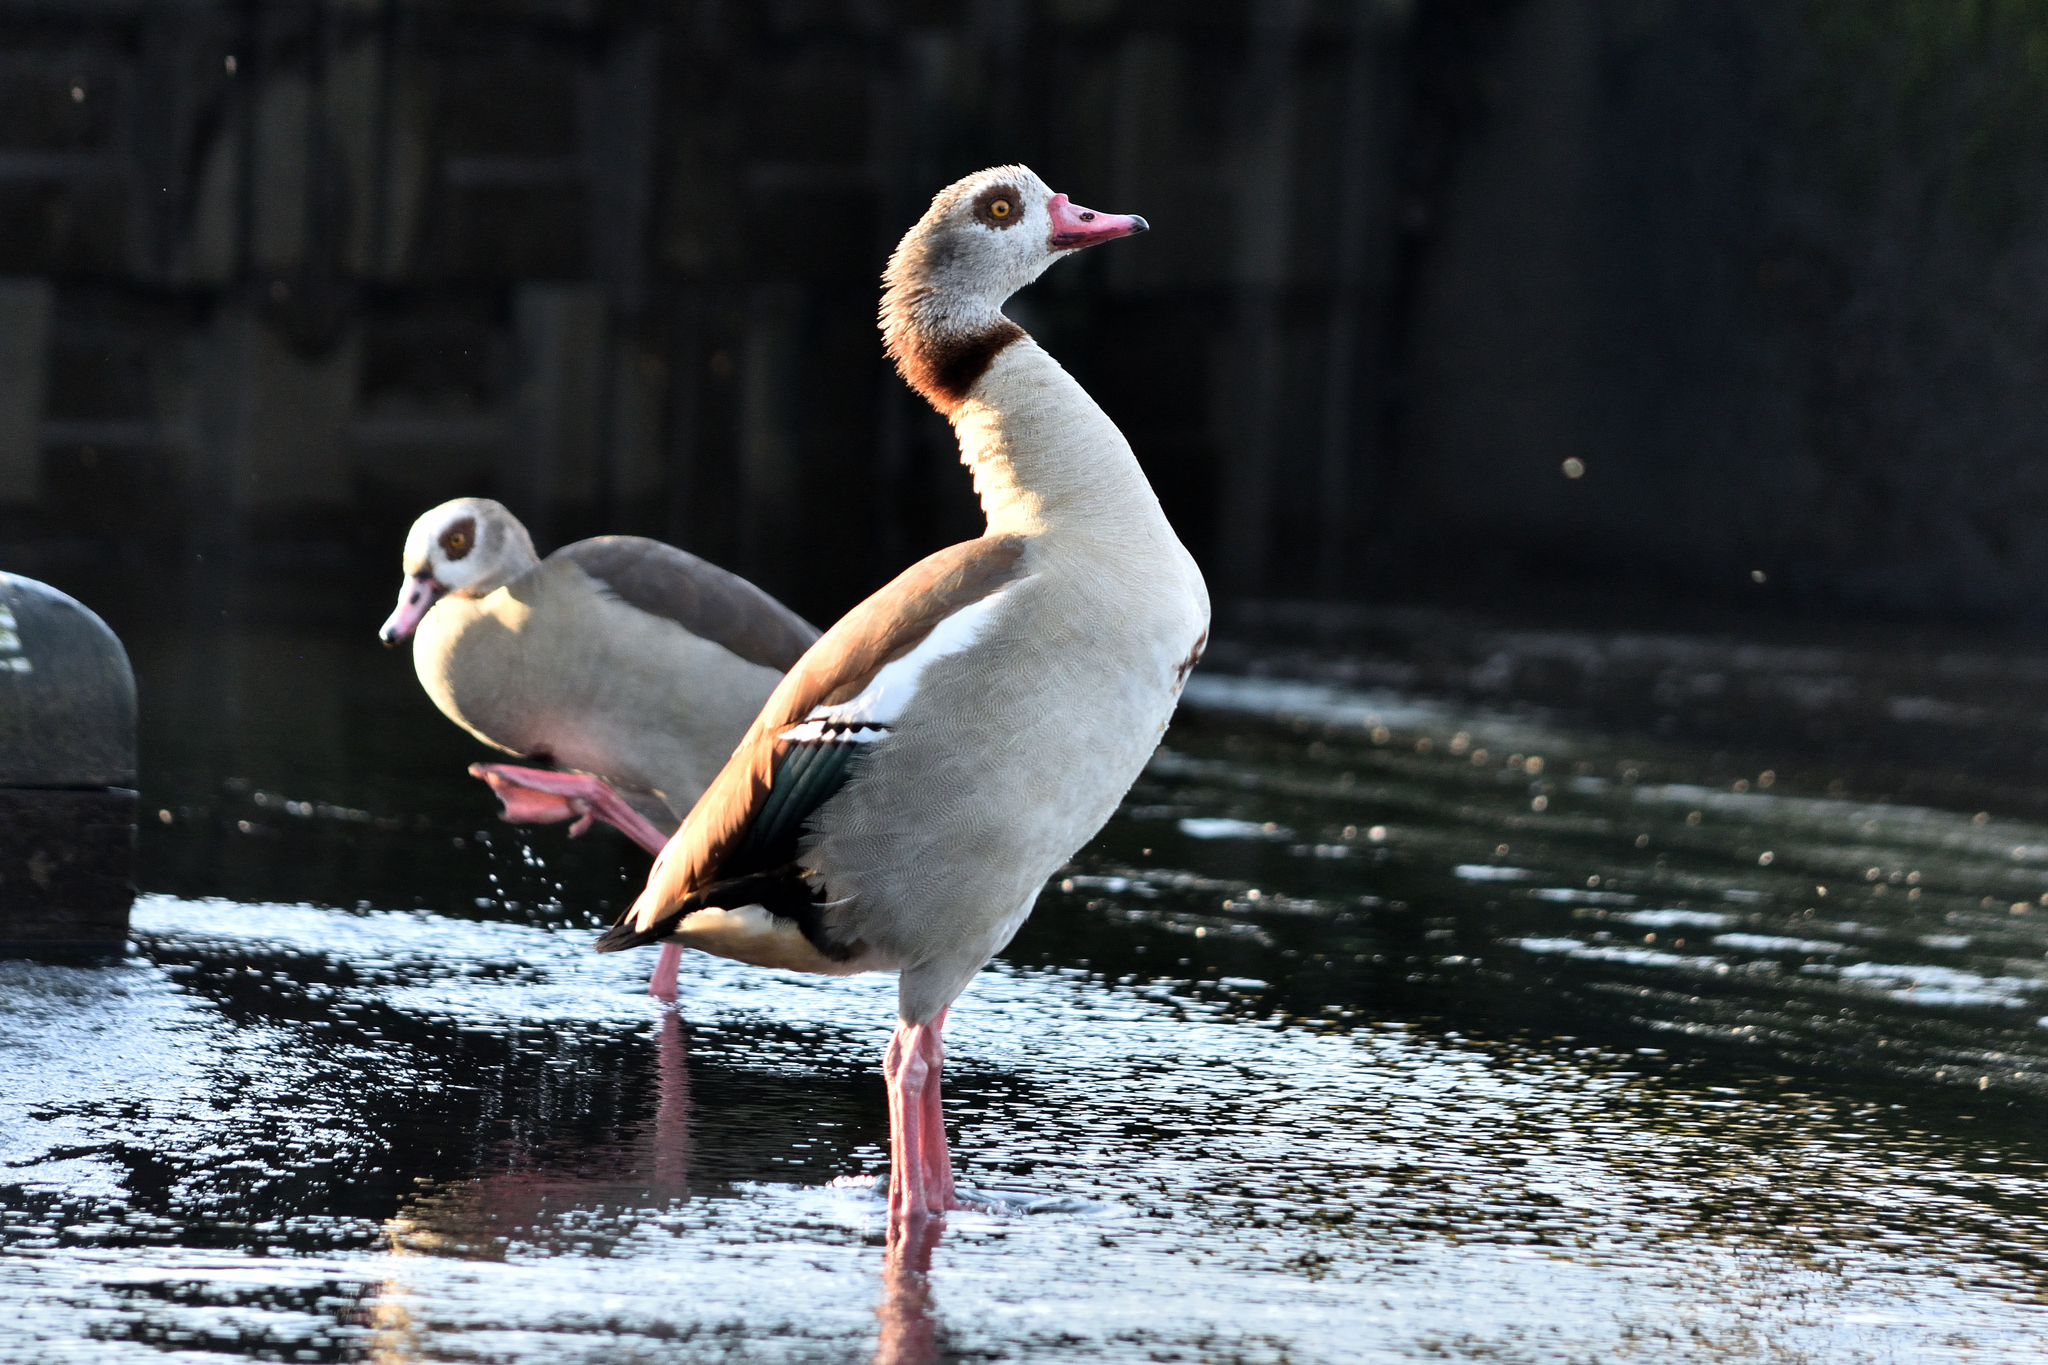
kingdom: Animalia
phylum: Chordata
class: Aves
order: Anseriformes
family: Anatidae
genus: Alopochen
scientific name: Alopochen aegyptiaca
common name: Egyptian goose
